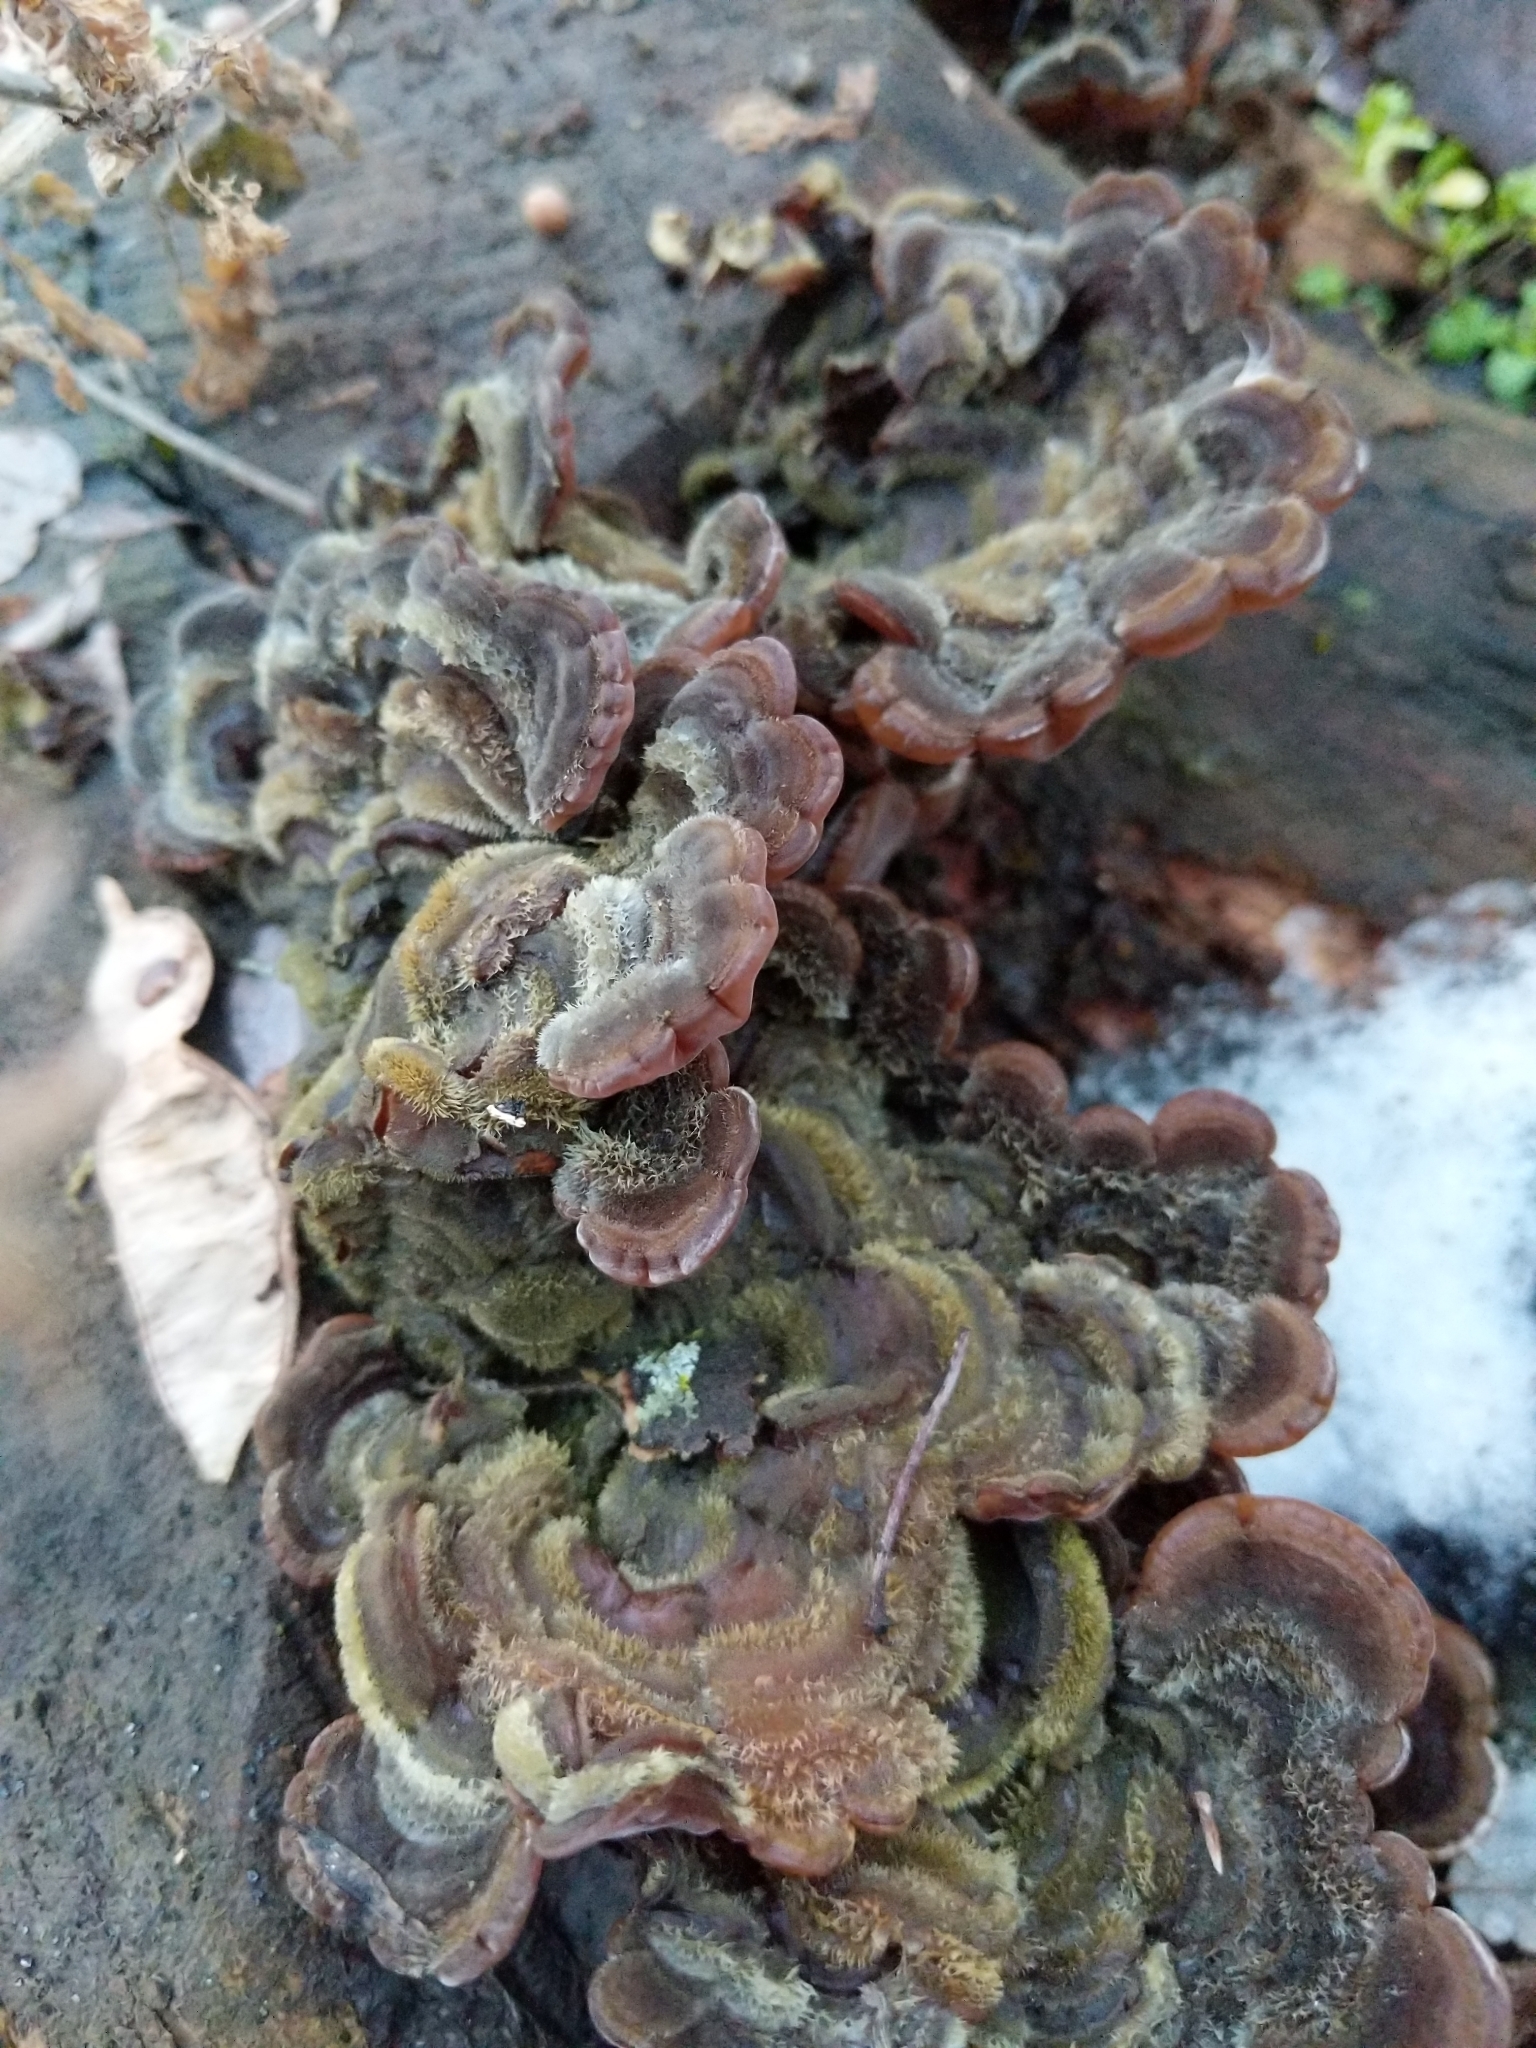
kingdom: Fungi
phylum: Basidiomycota
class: Agaricomycetes
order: Auriculariales
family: Auriculariaceae
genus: Auricularia
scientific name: Auricularia mesenterica
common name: Tripe fungus
